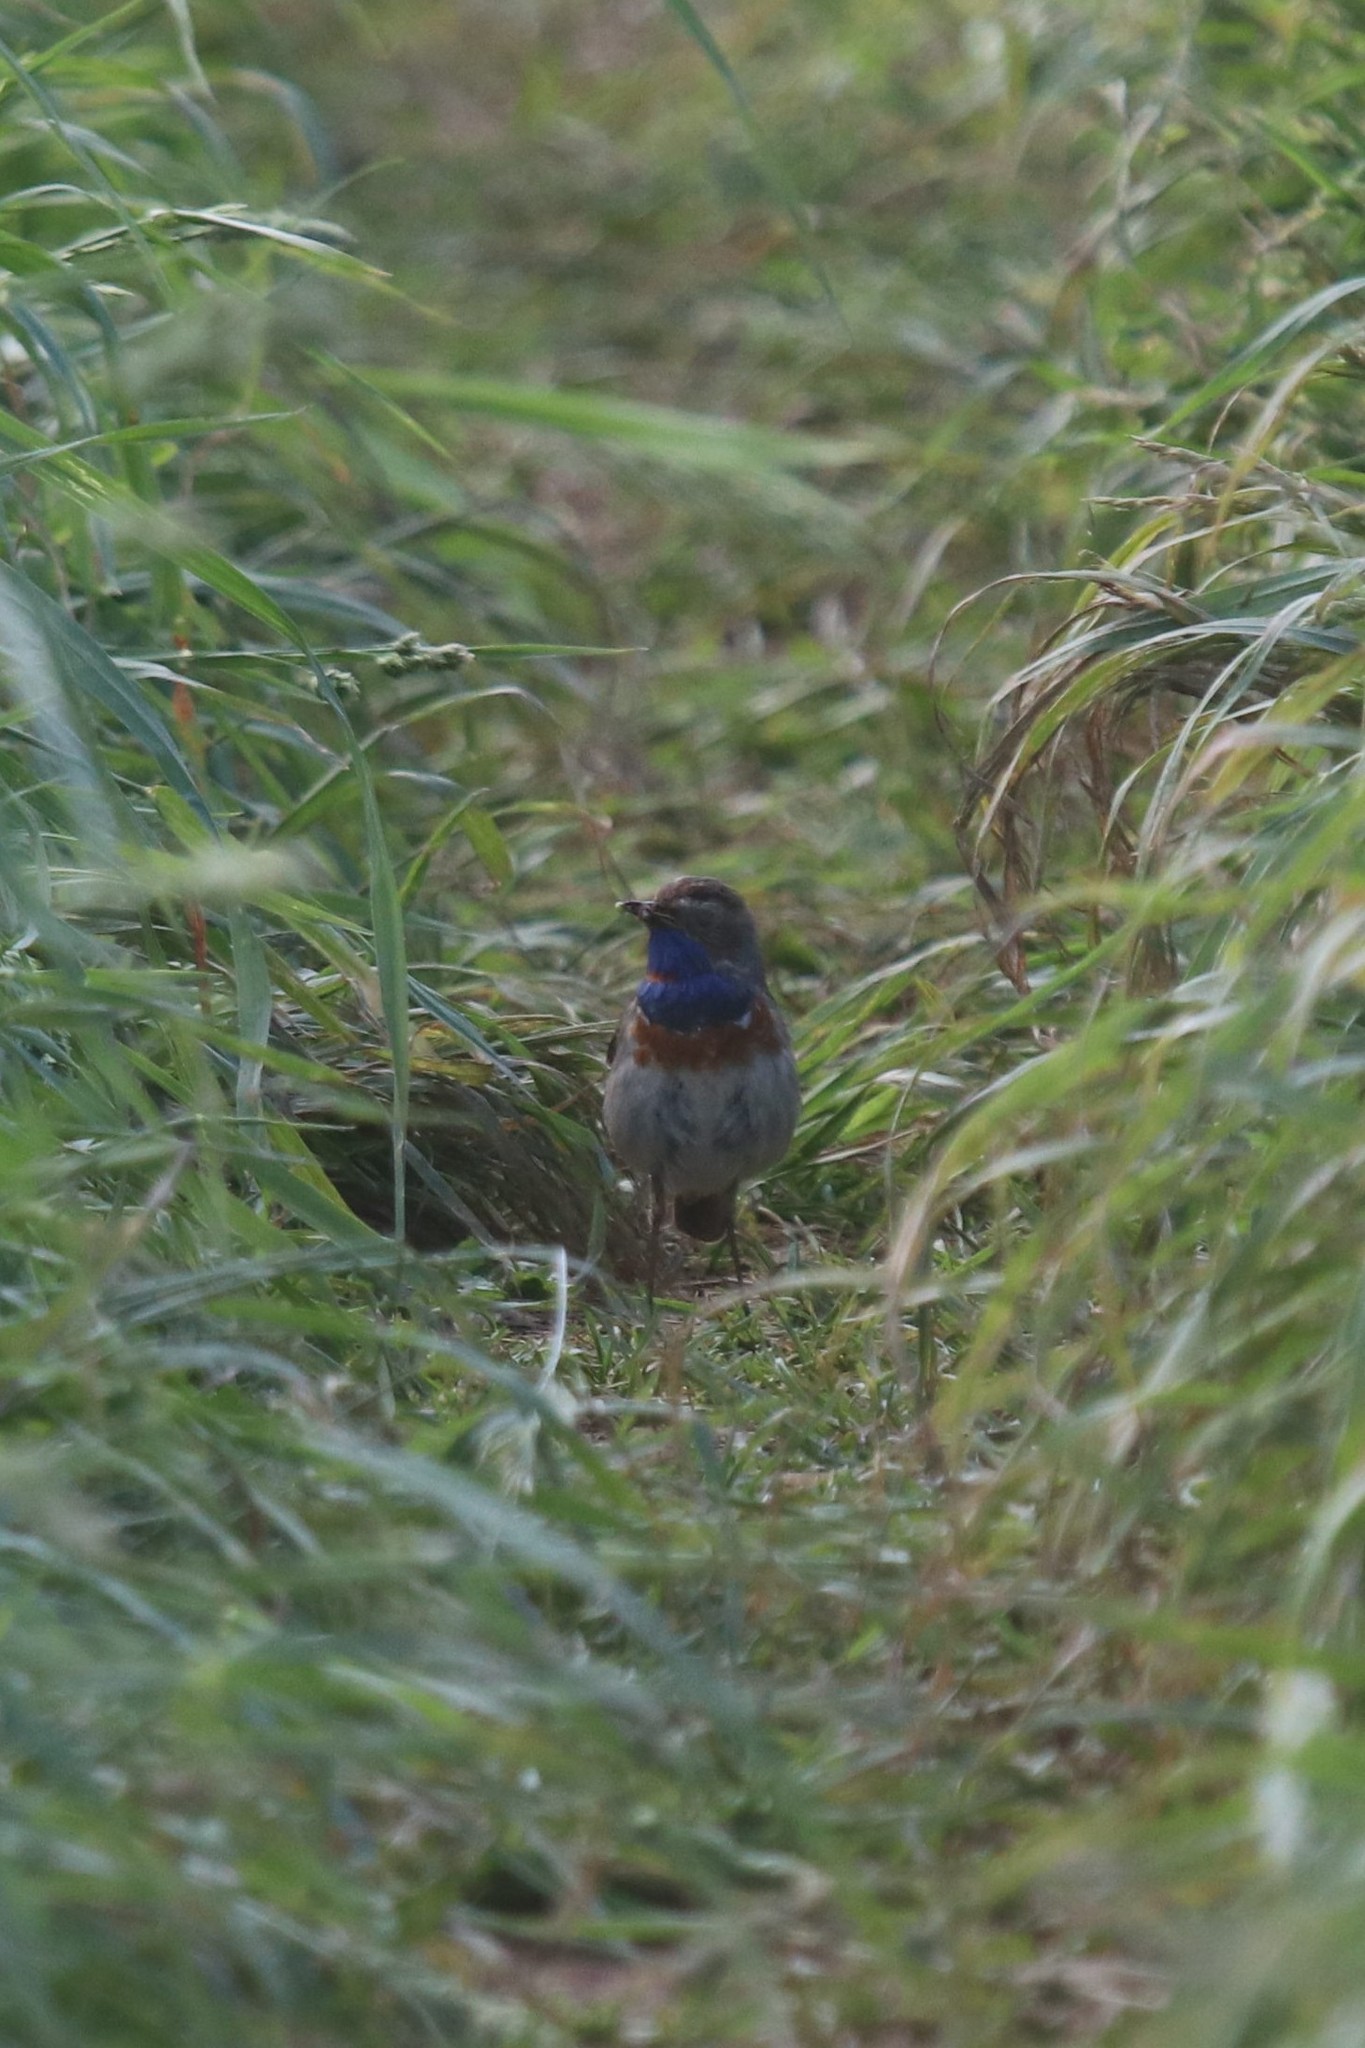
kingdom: Animalia
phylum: Chordata
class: Aves
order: Passeriformes
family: Muscicapidae
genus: Luscinia
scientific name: Luscinia svecica
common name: Bluethroat
